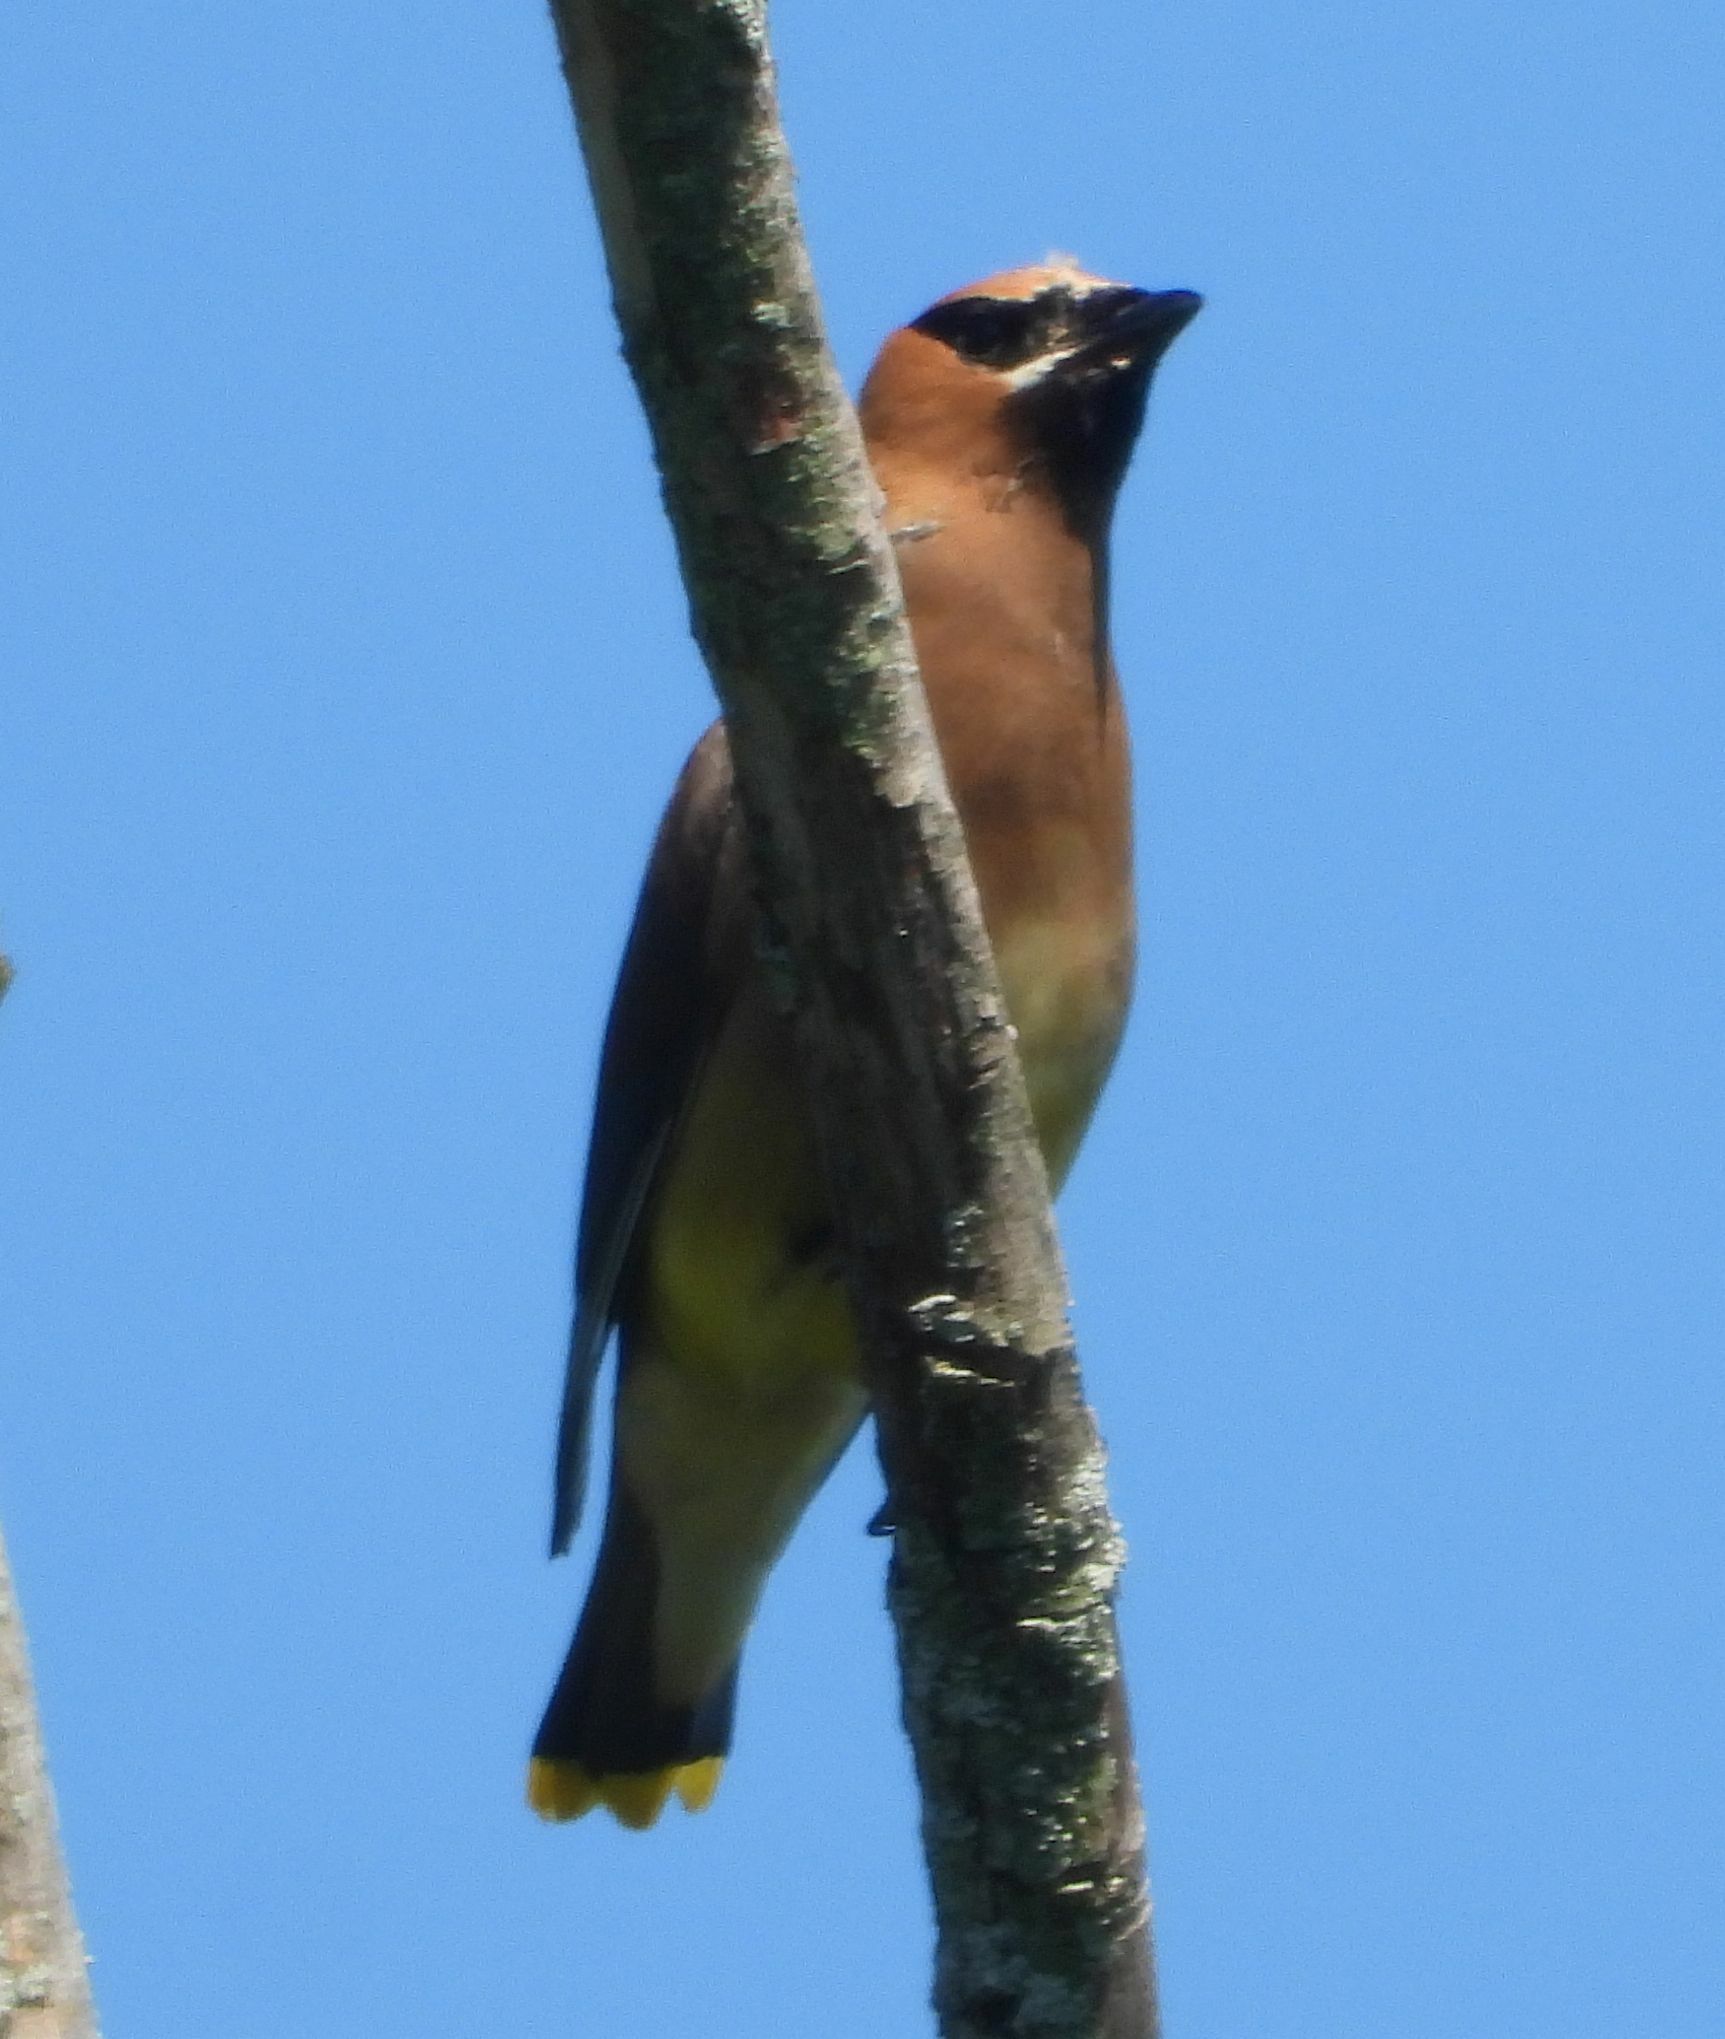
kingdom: Animalia
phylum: Chordata
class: Aves
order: Passeriformes
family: Bombycillidae
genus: Bombycilla
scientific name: Bombycilla cedrorum
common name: Cedar waxwing
